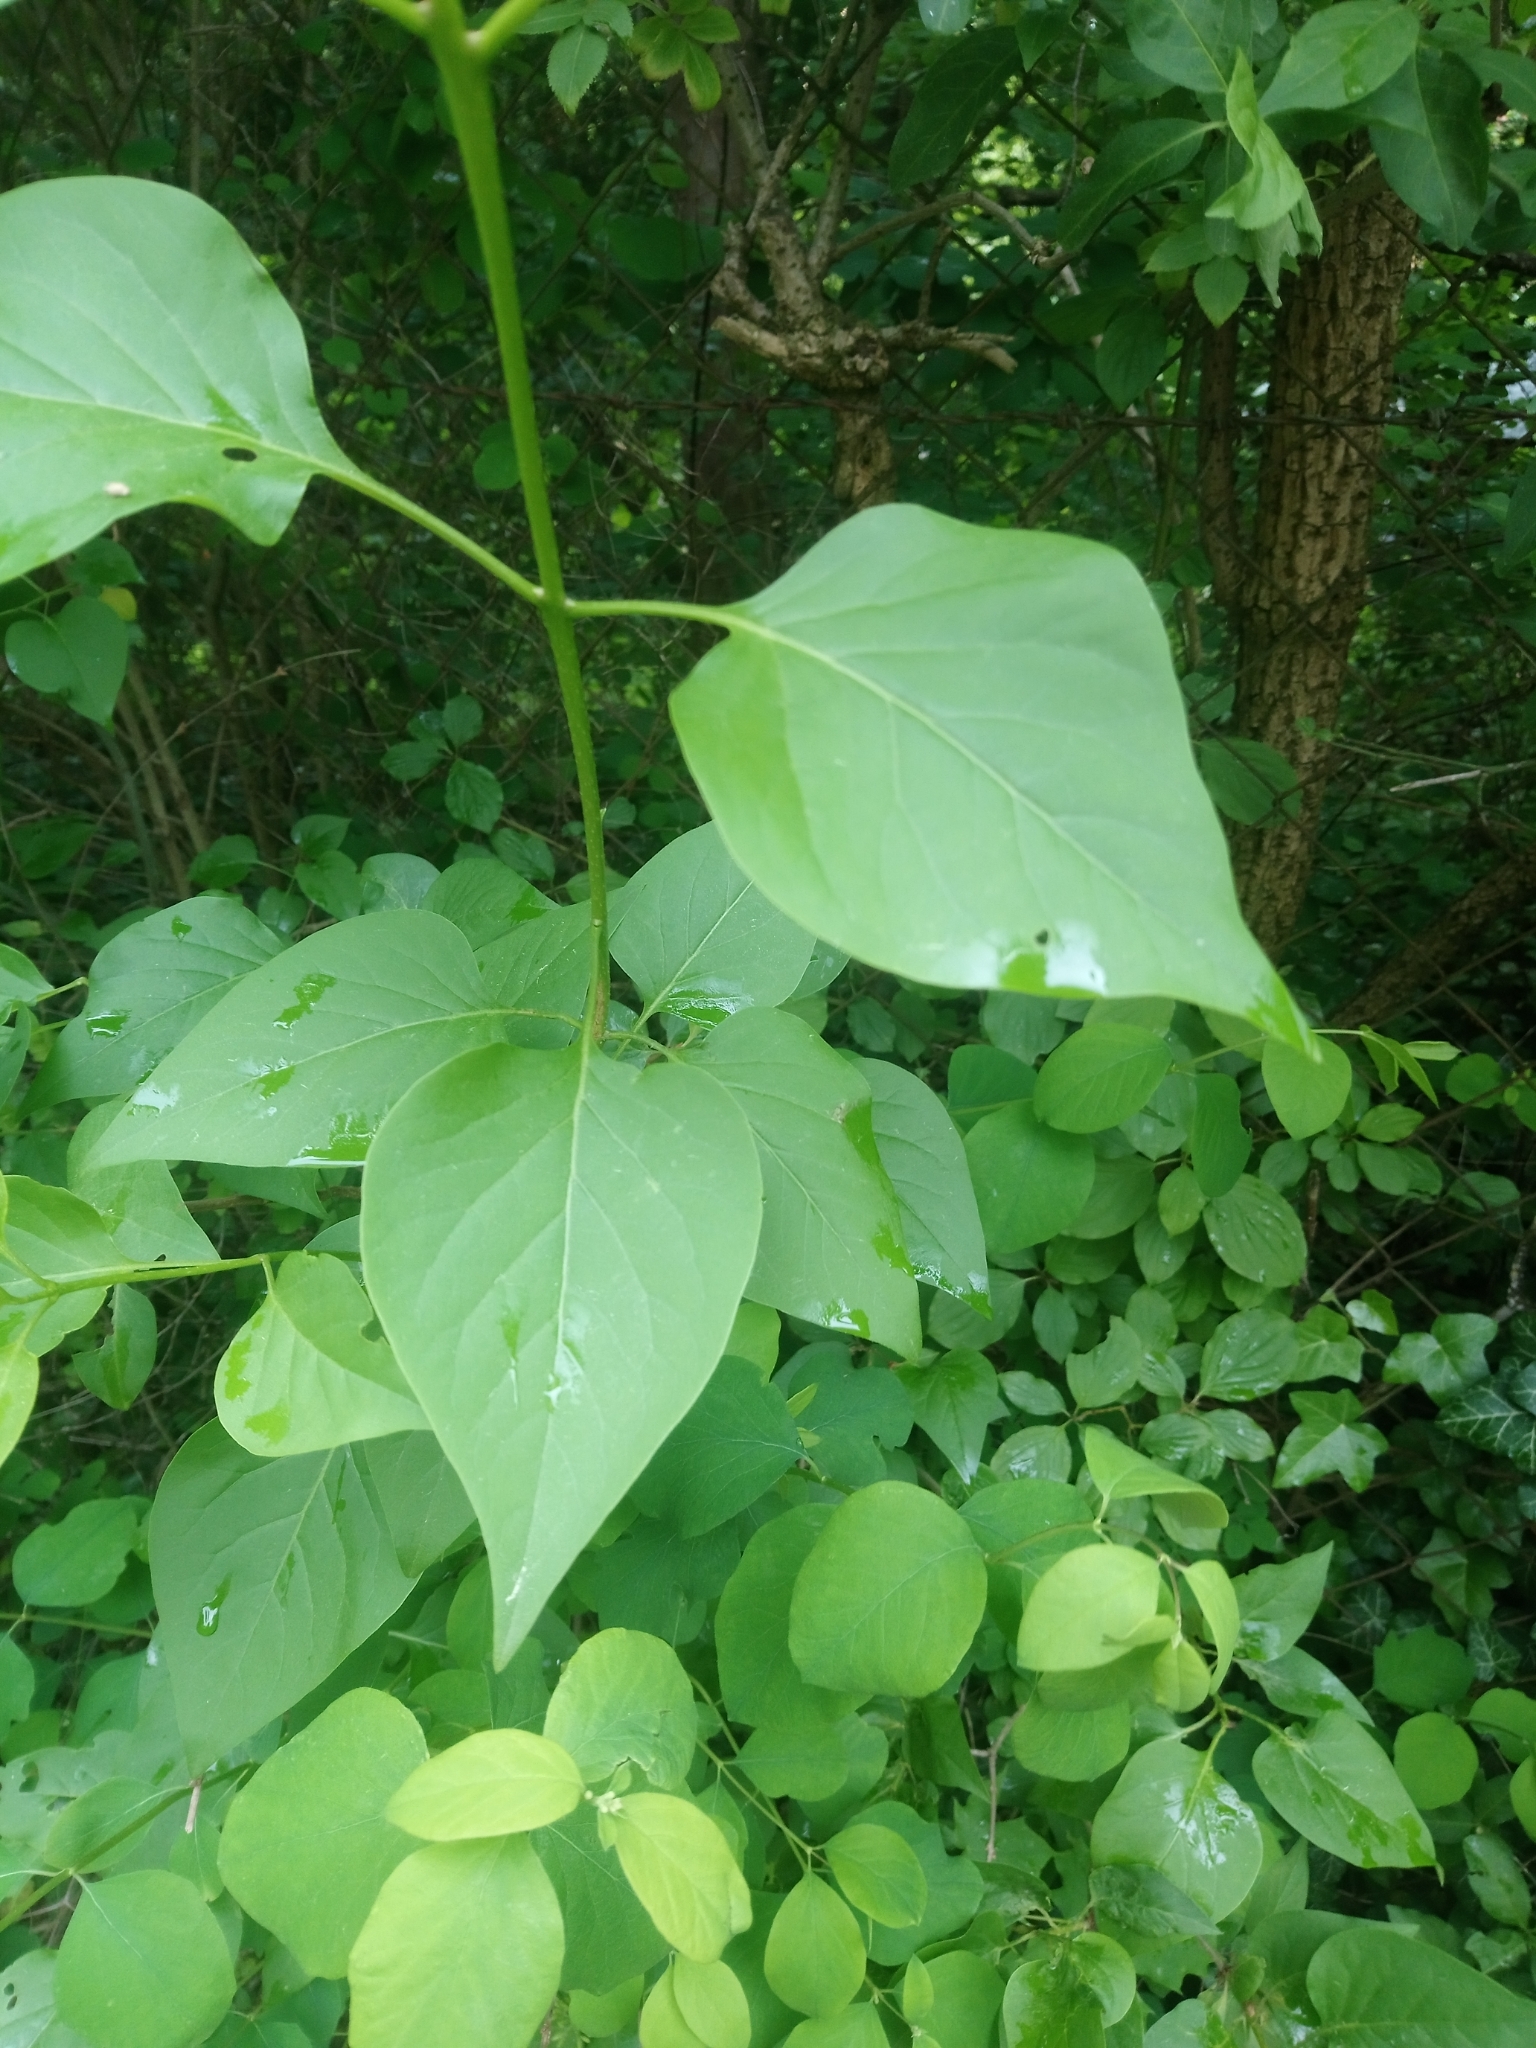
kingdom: Plantae
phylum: Tracheophyta
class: Magnoliopsida
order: Lamiales
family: Oleaceae
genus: Syringa
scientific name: Syringa vulgaris
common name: Common lilac
